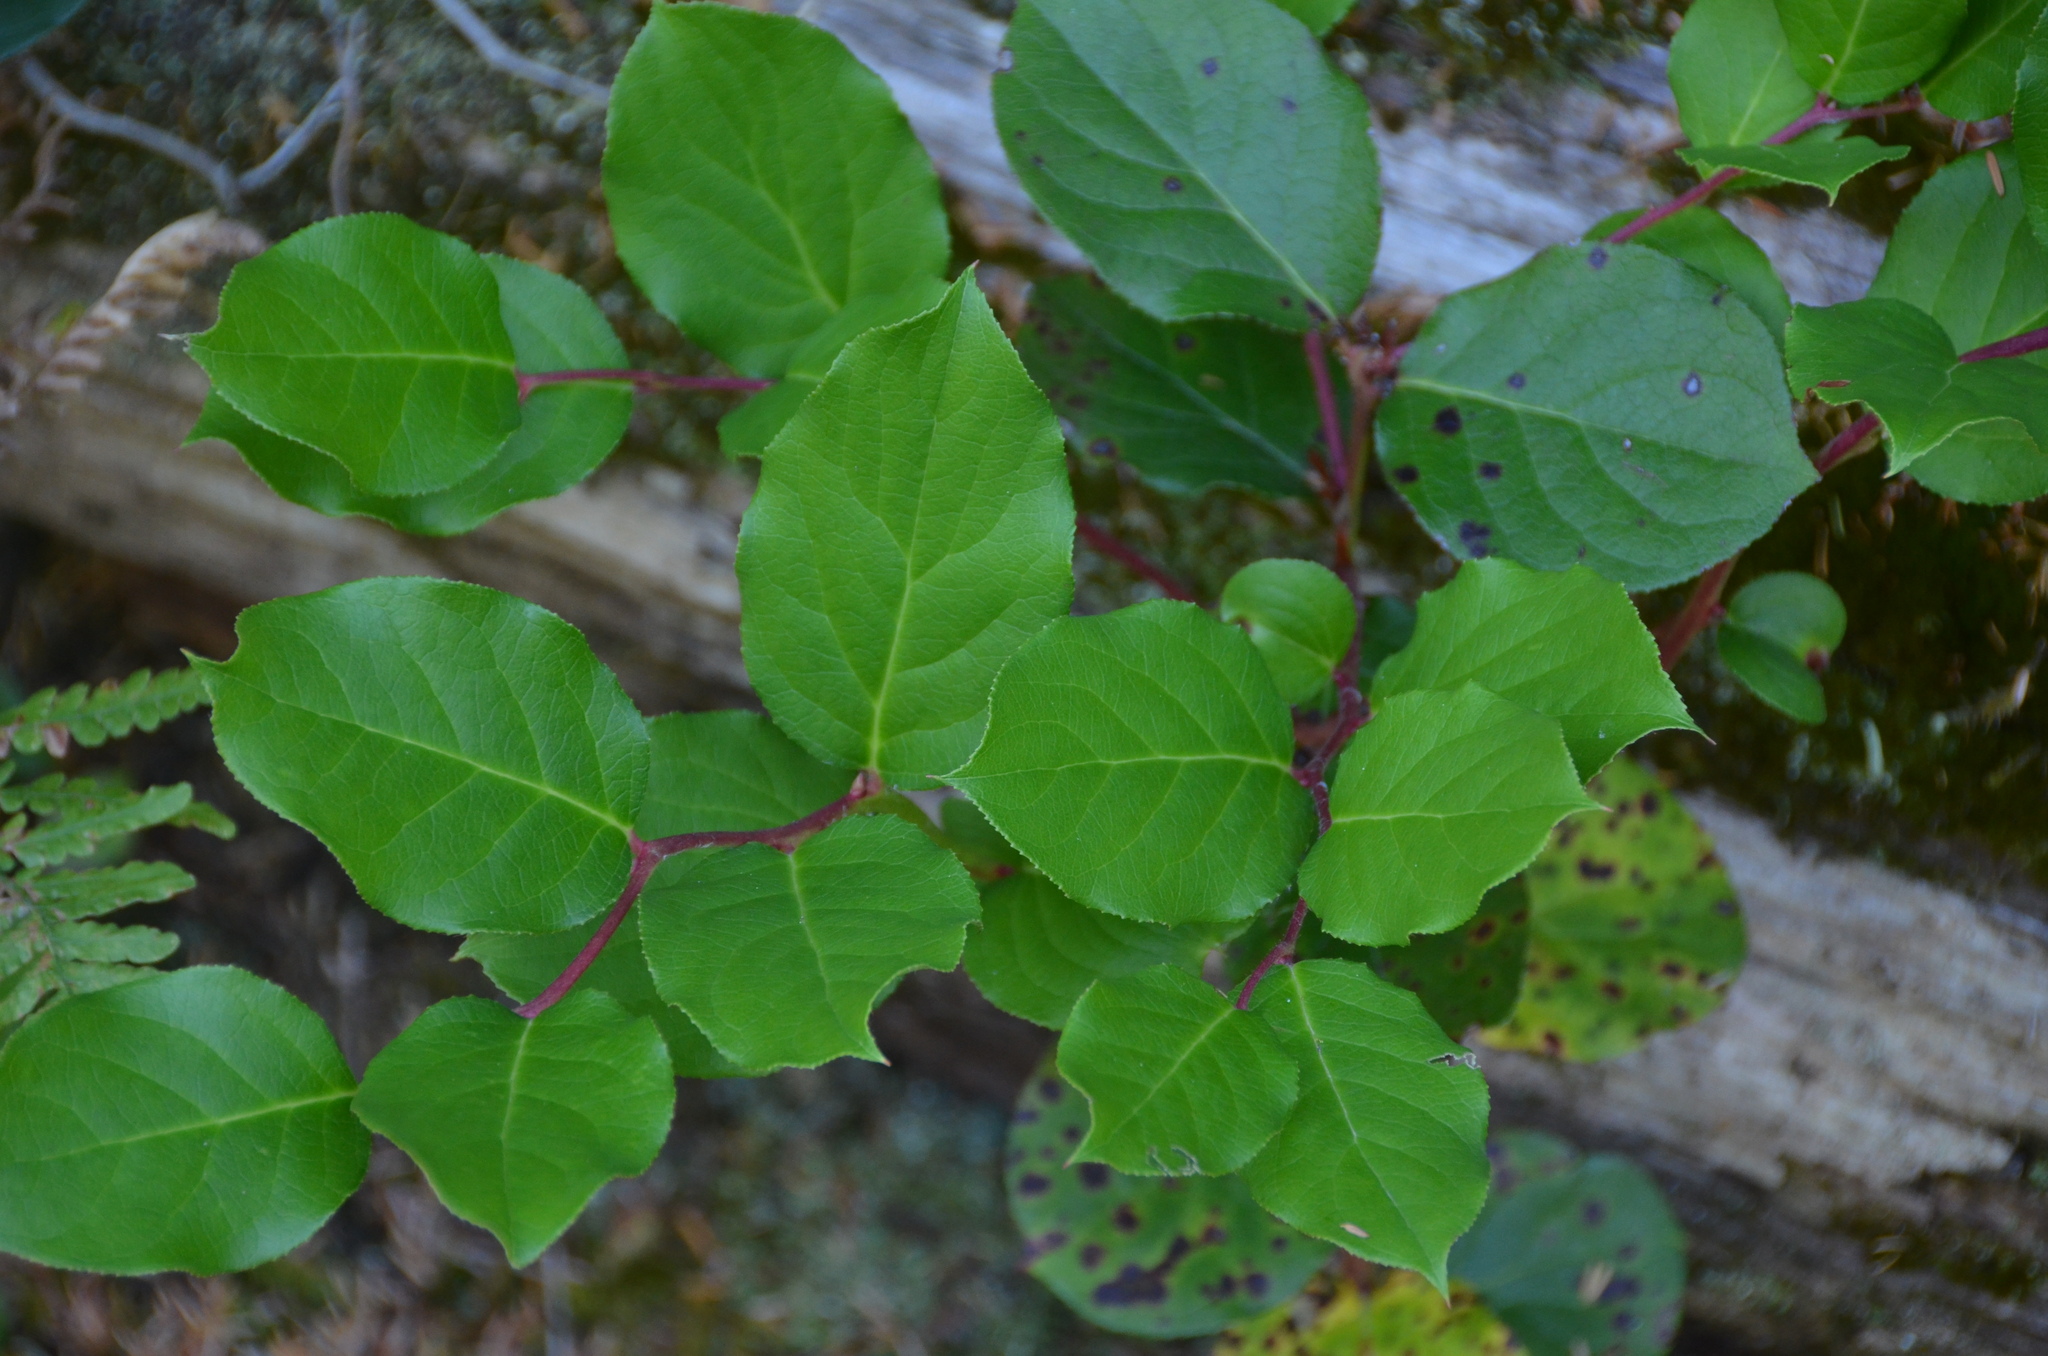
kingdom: Plantae
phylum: Tracheophyta
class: Magnoliopsida
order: Ericales
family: Ericaceae
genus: Gaultheria
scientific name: Gaultheria shallon
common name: Shallon
